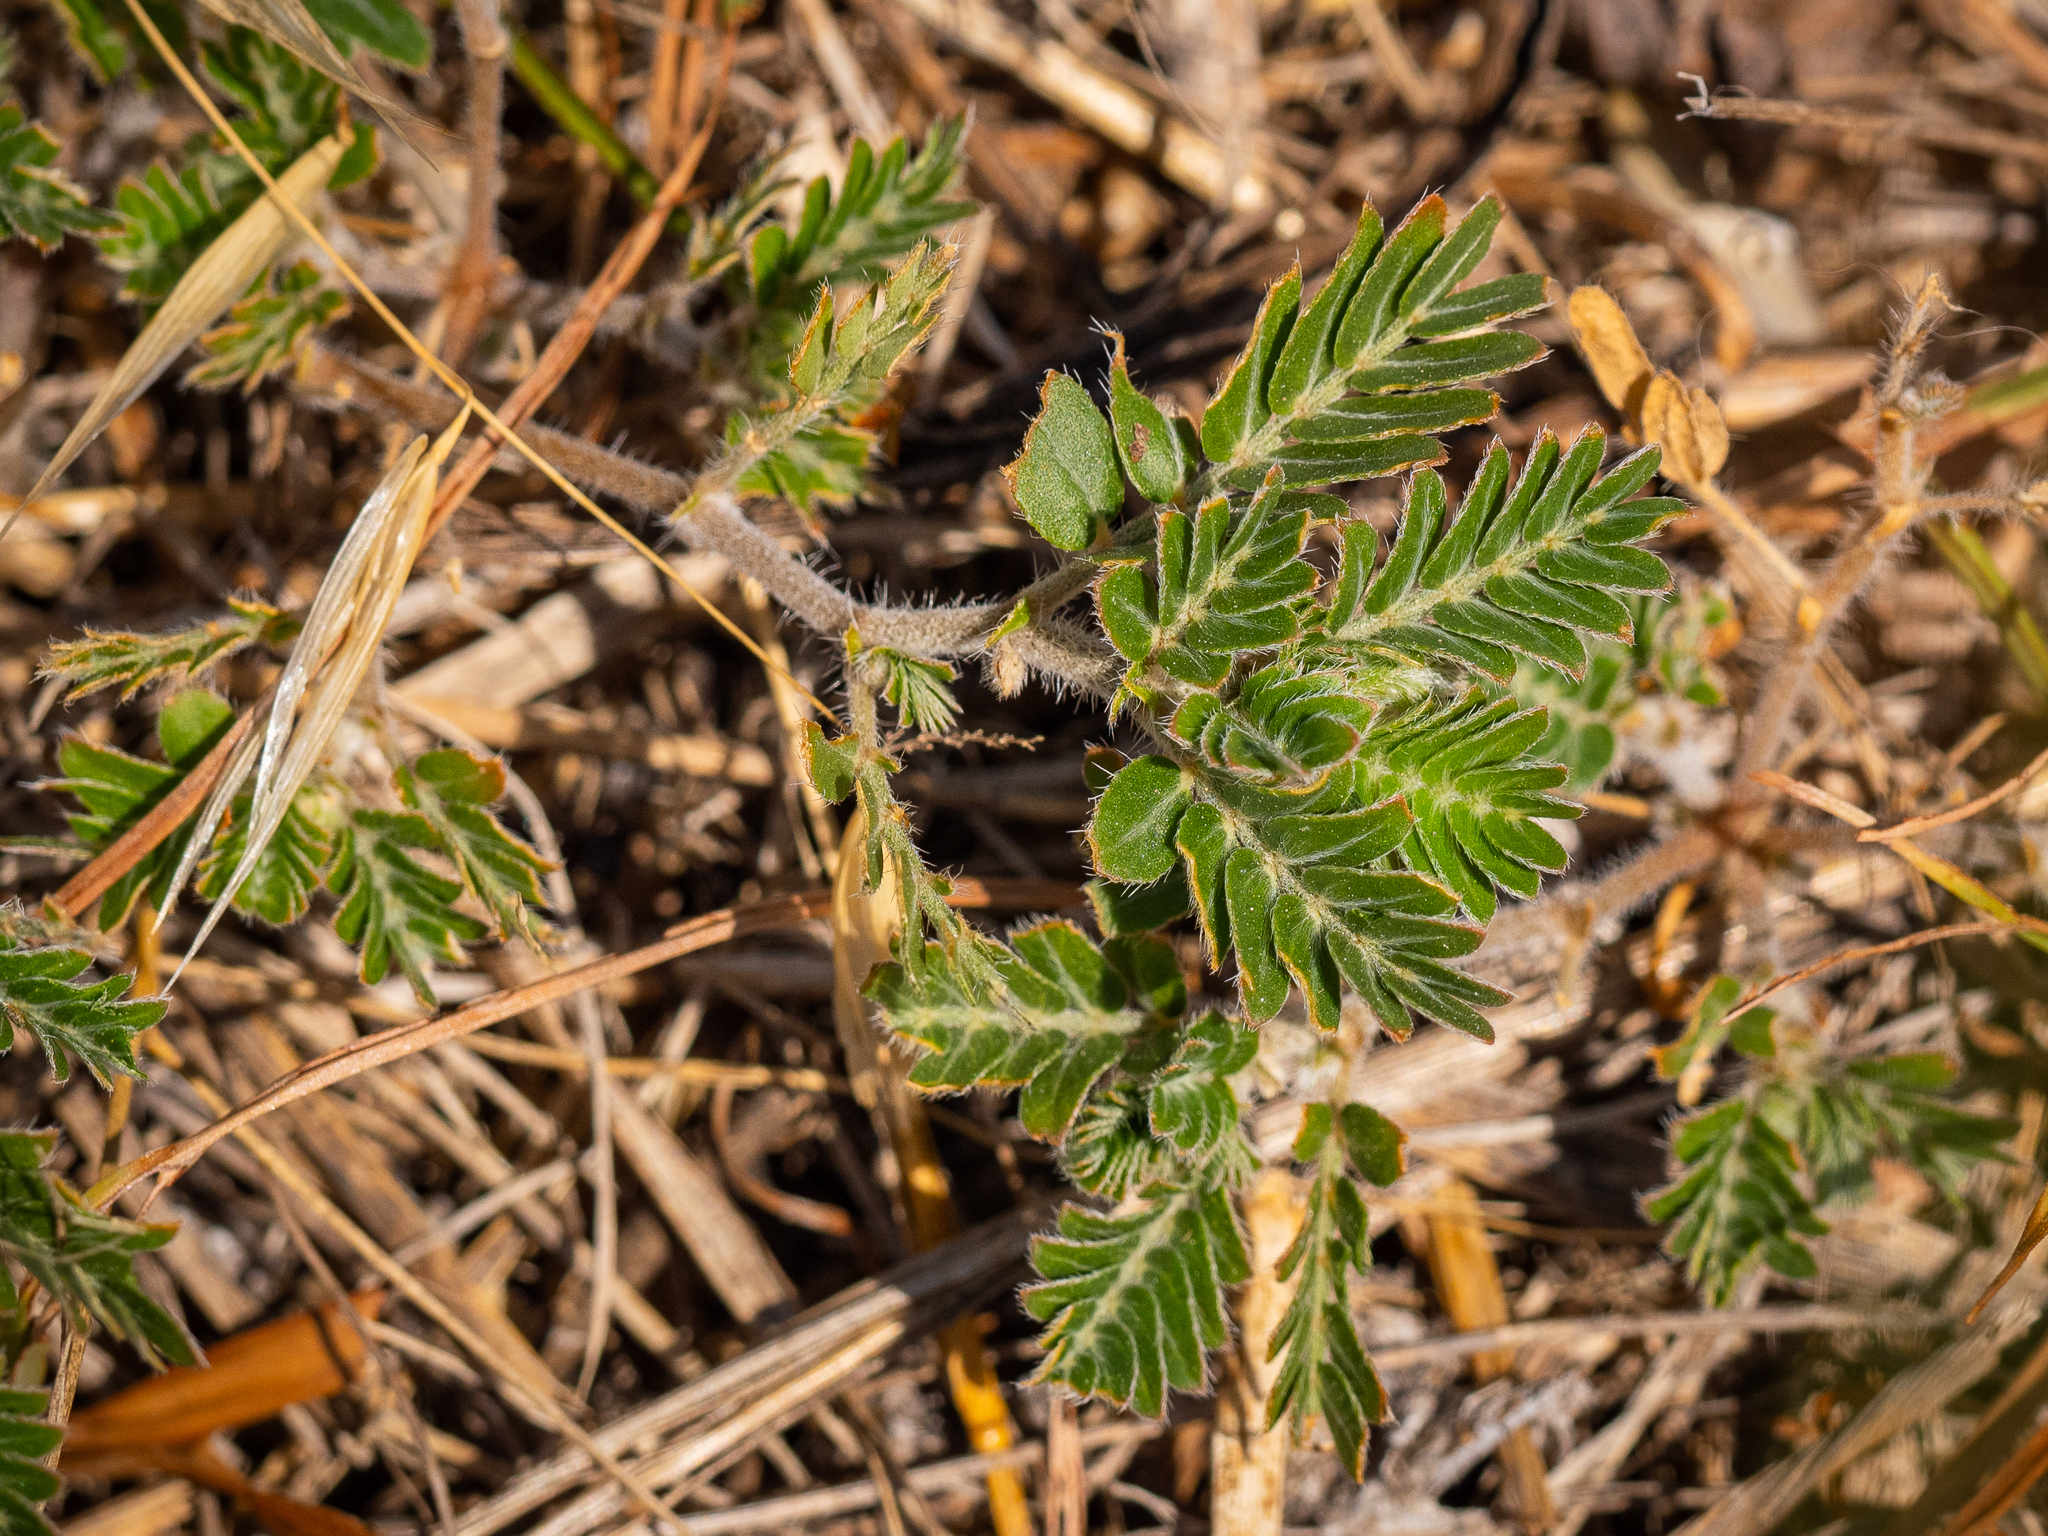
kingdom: Plantae
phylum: Tracheophyta
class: Magnoliopsida
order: Zygophyllales
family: Zygophyllaceae
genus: Tribulus
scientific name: Tribulus terrestris
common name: Puncturevine
